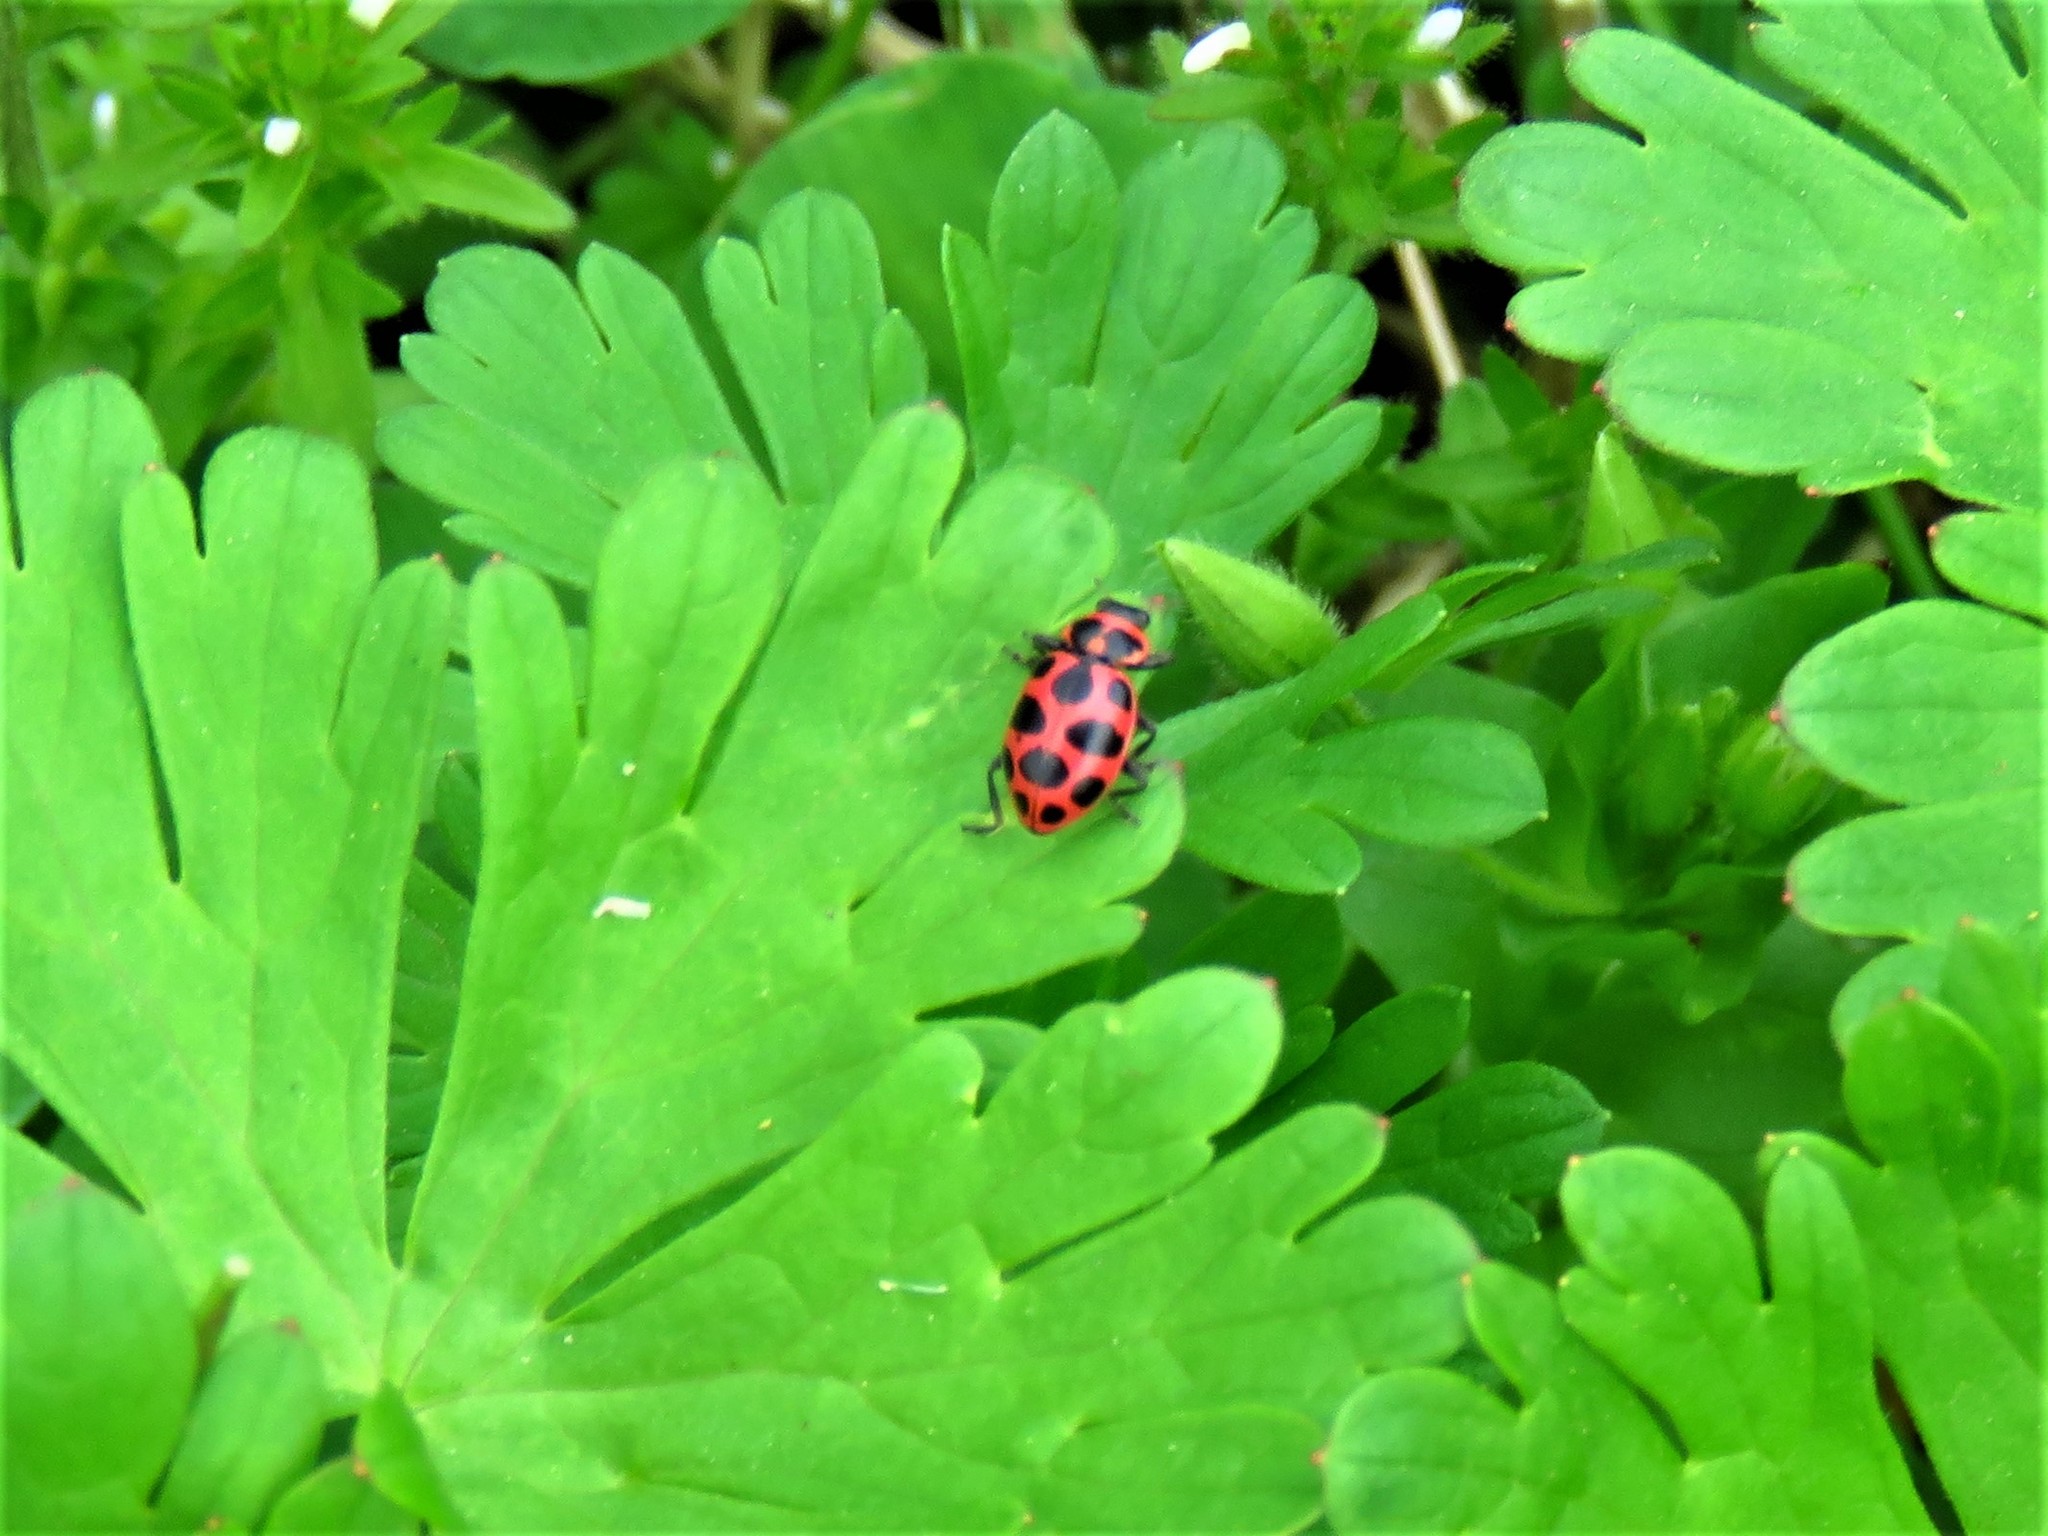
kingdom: Animalia
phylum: Arthropoda
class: Insecta
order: Coleoptera
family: Coccinellidae
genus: Coleomegilla
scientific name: Coleomegilla maculata
